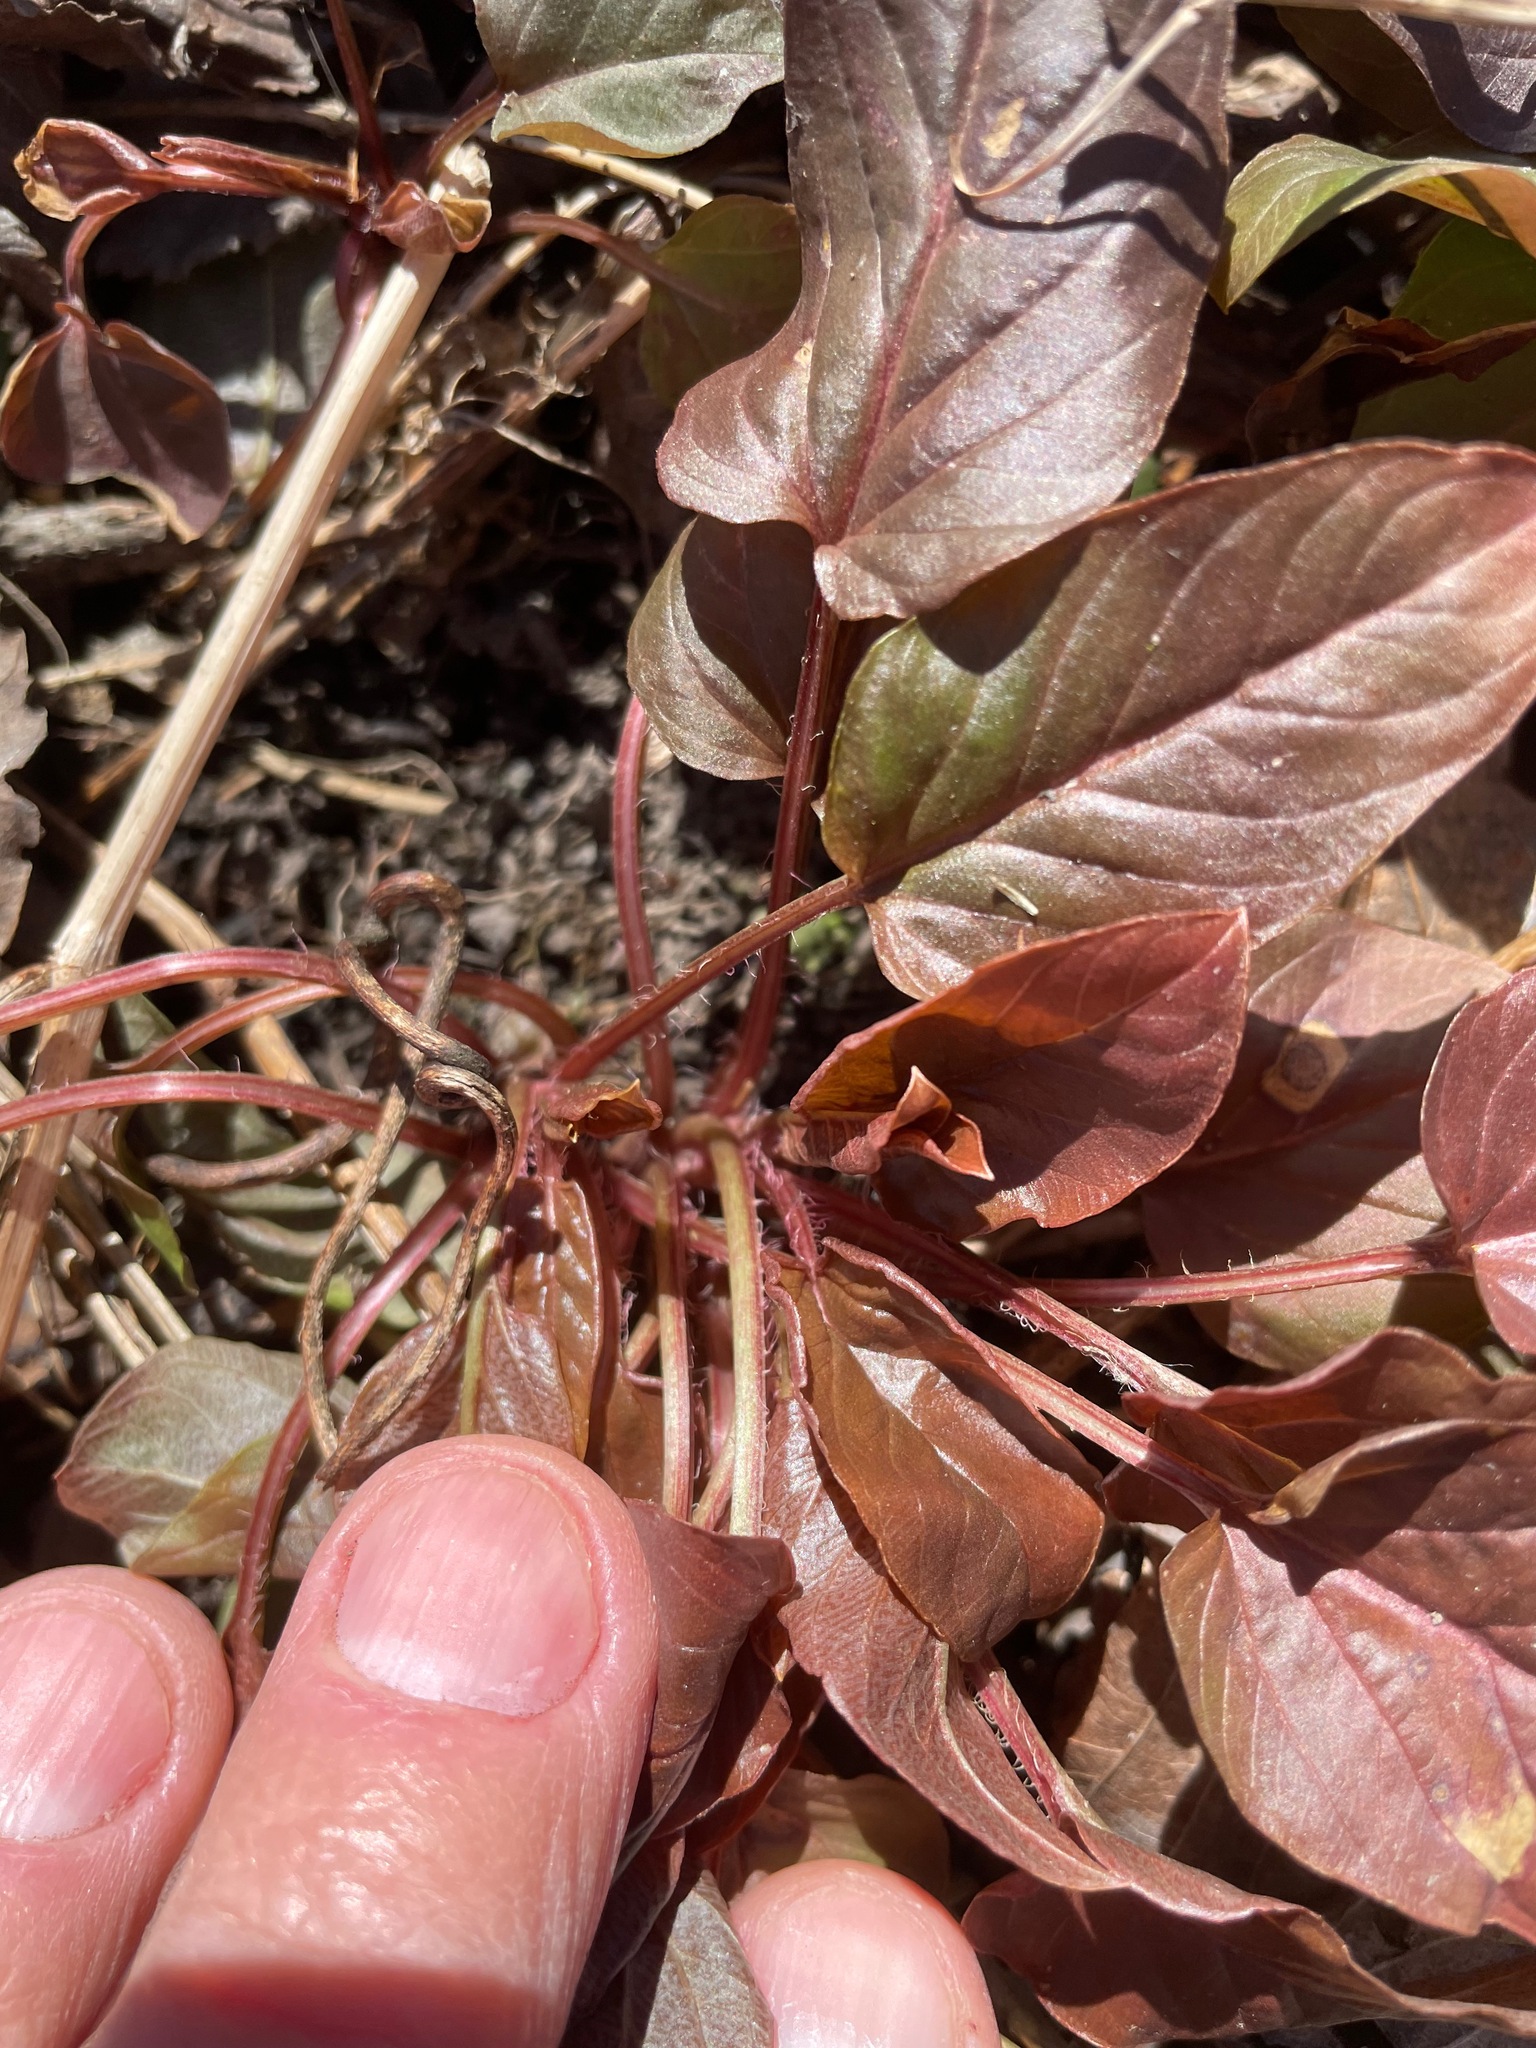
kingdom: Plantae
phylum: Tracheophyta
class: Magnoliopsida
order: Ericales
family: Primulaceae
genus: Lysimachia
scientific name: Lysimachia ciliata
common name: Fringed loosestrife
